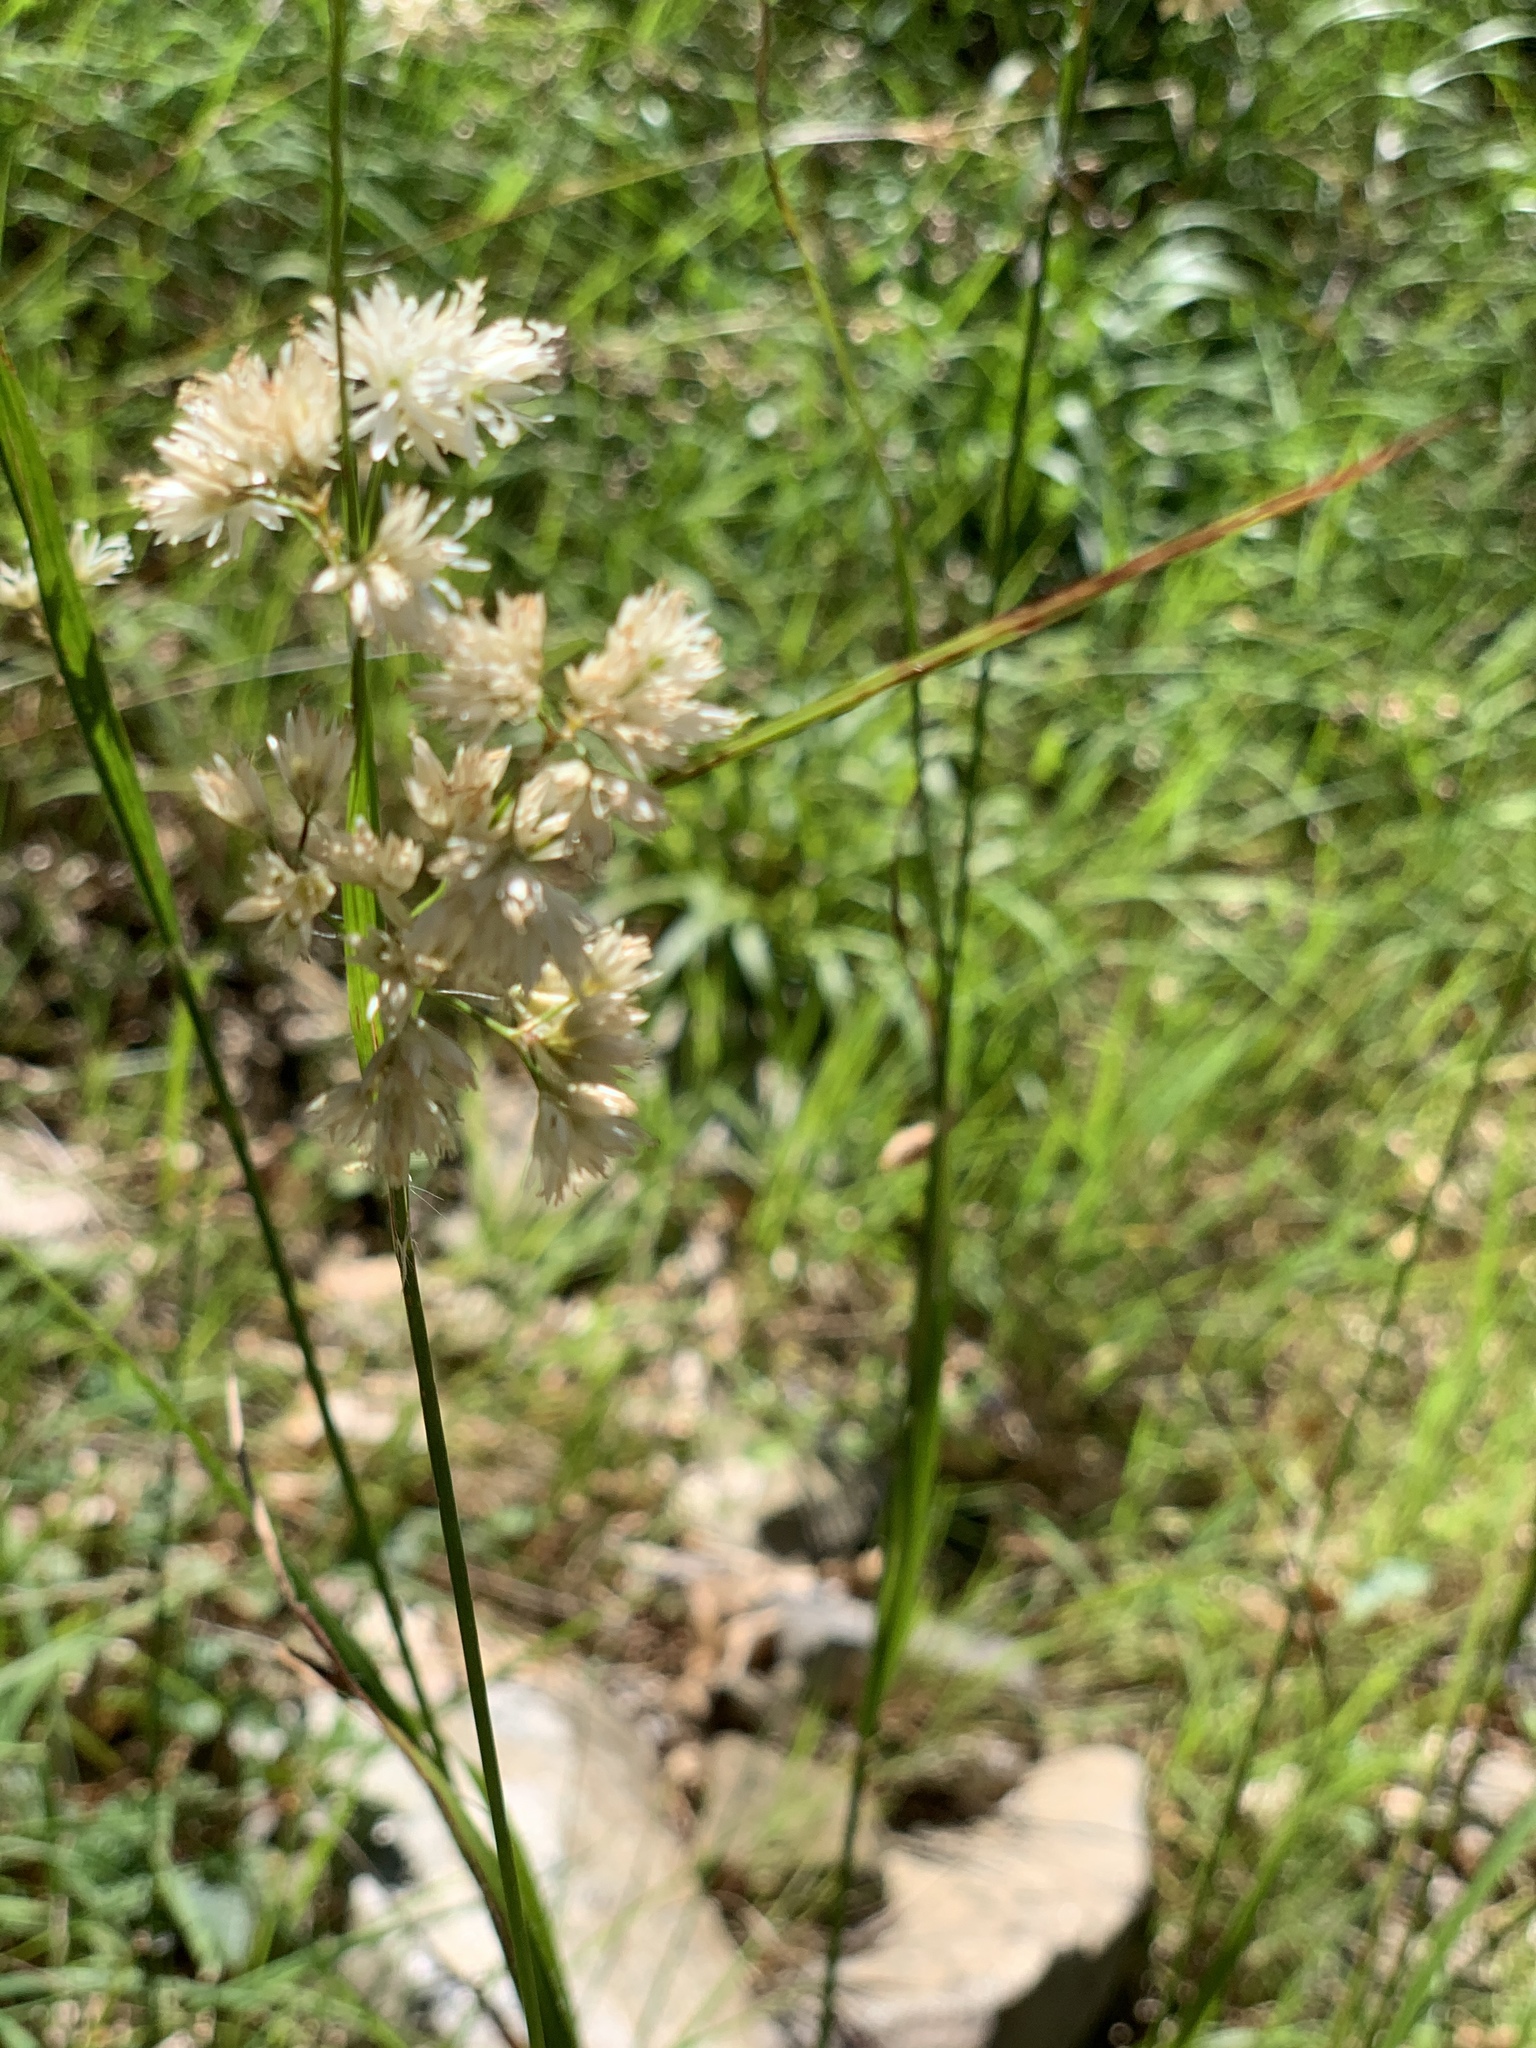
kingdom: Plantae
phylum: Tracheophyta
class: Liliopsida
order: Poales
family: Juncaceae
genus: Luzula
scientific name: Luzula nivea
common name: Snow-white wood-rush
